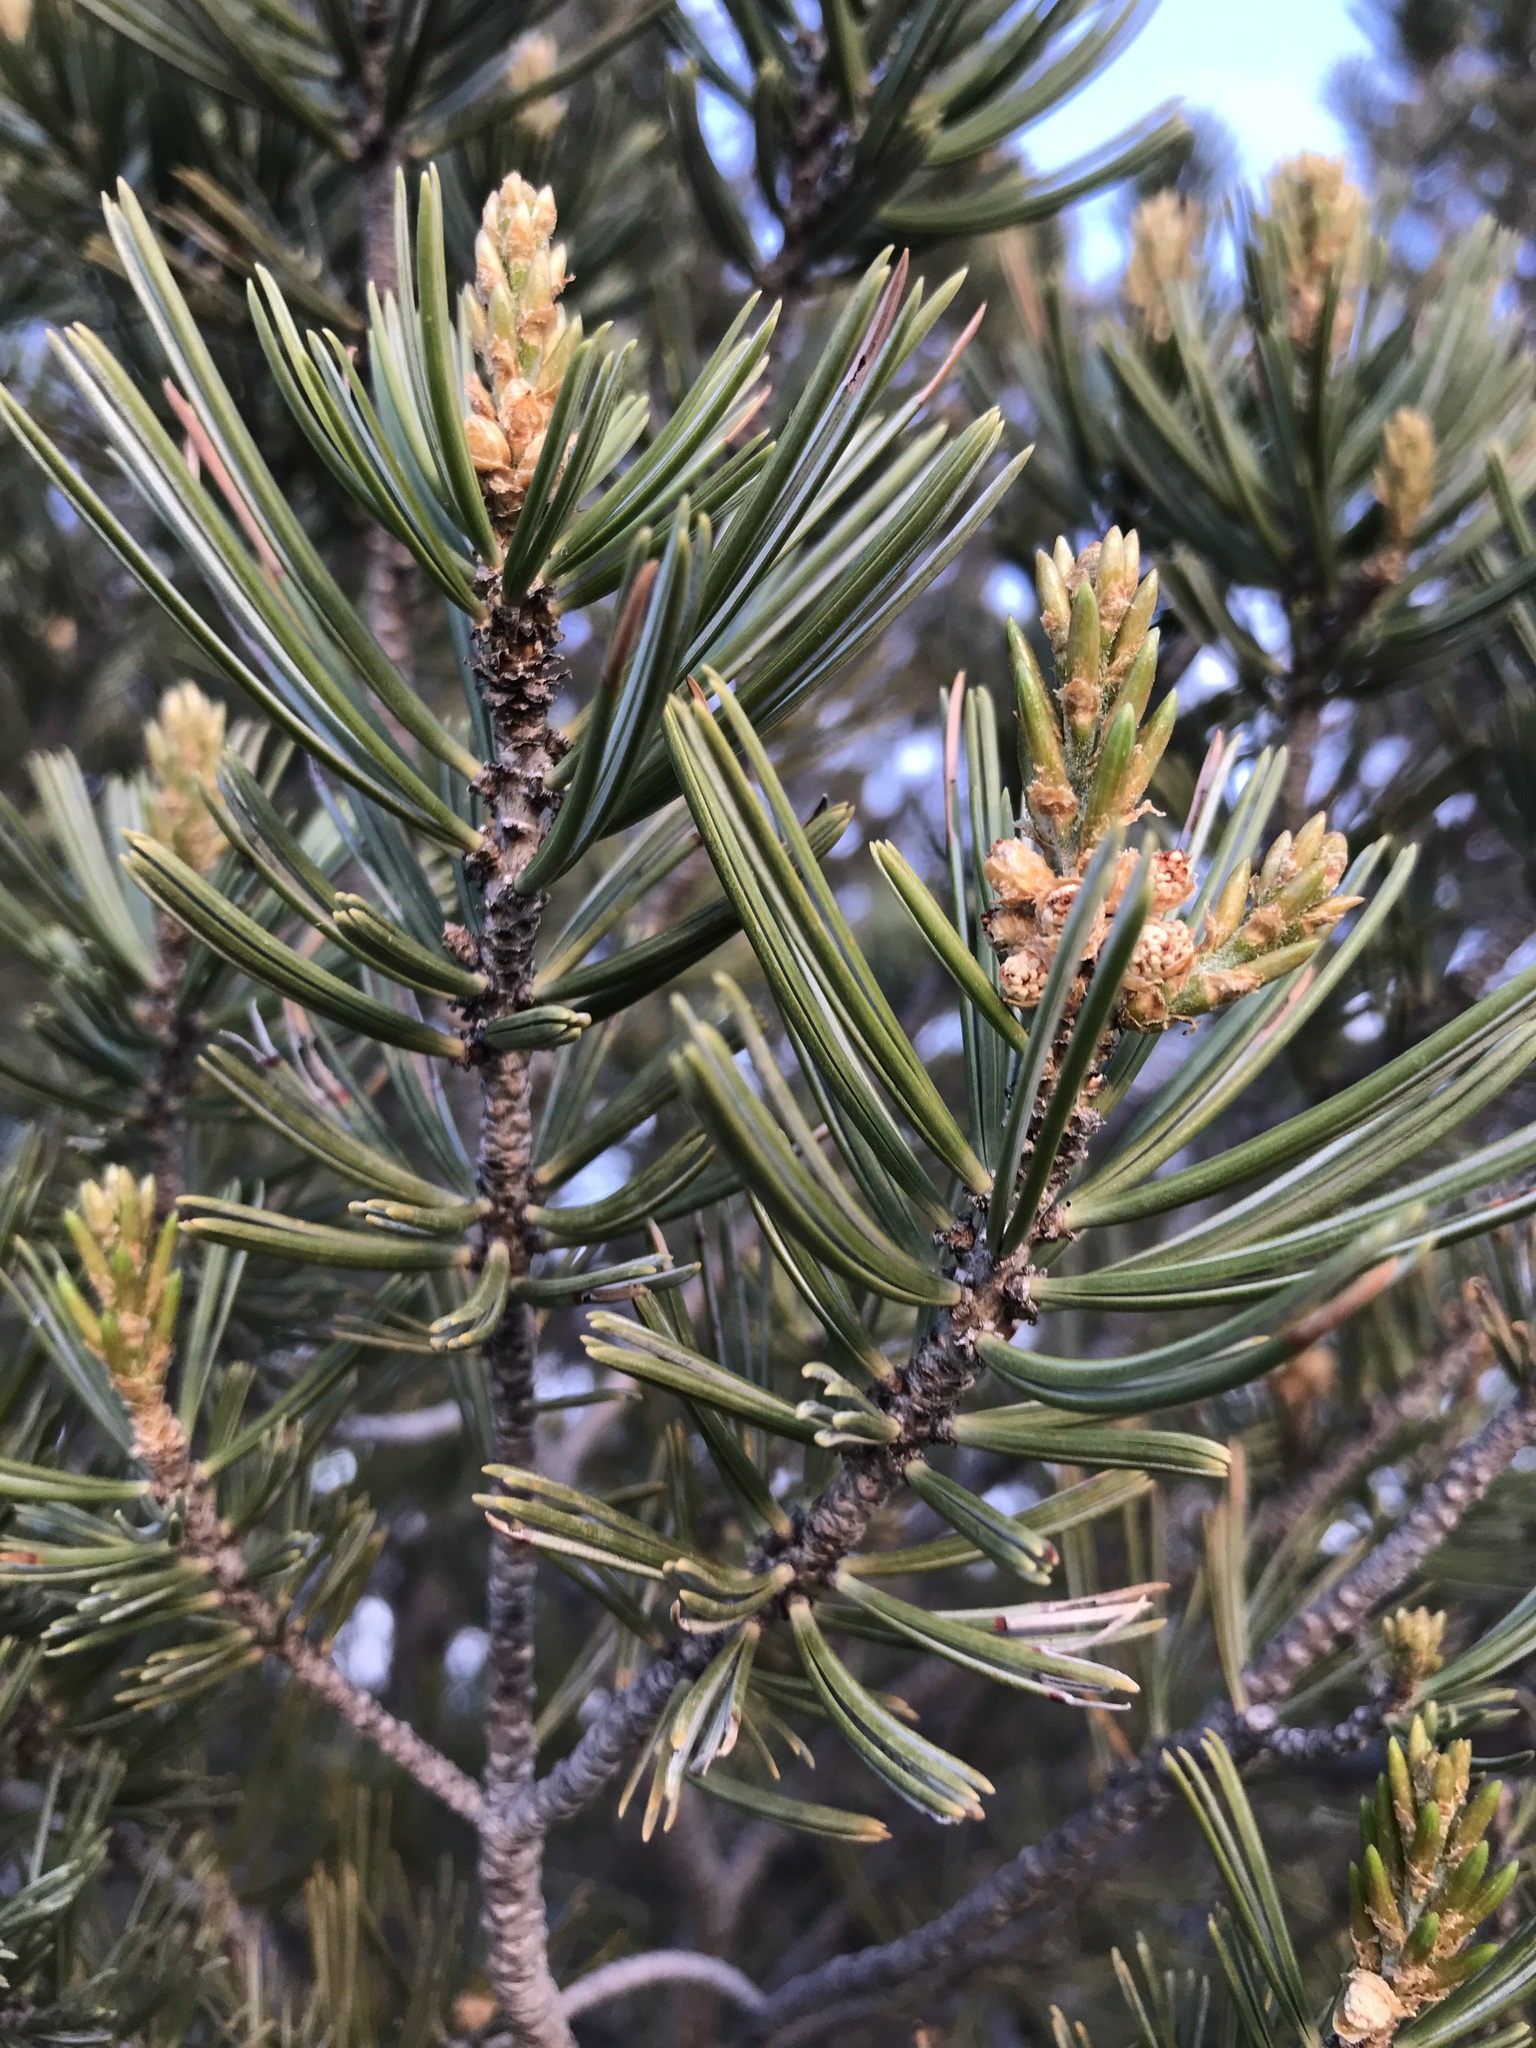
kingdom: Plantae
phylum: Tracheophyta
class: Pinopsida
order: Pinales
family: Pinaceae
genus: Pinus
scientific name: Pinus quadrifolia
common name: Parry pinyon
